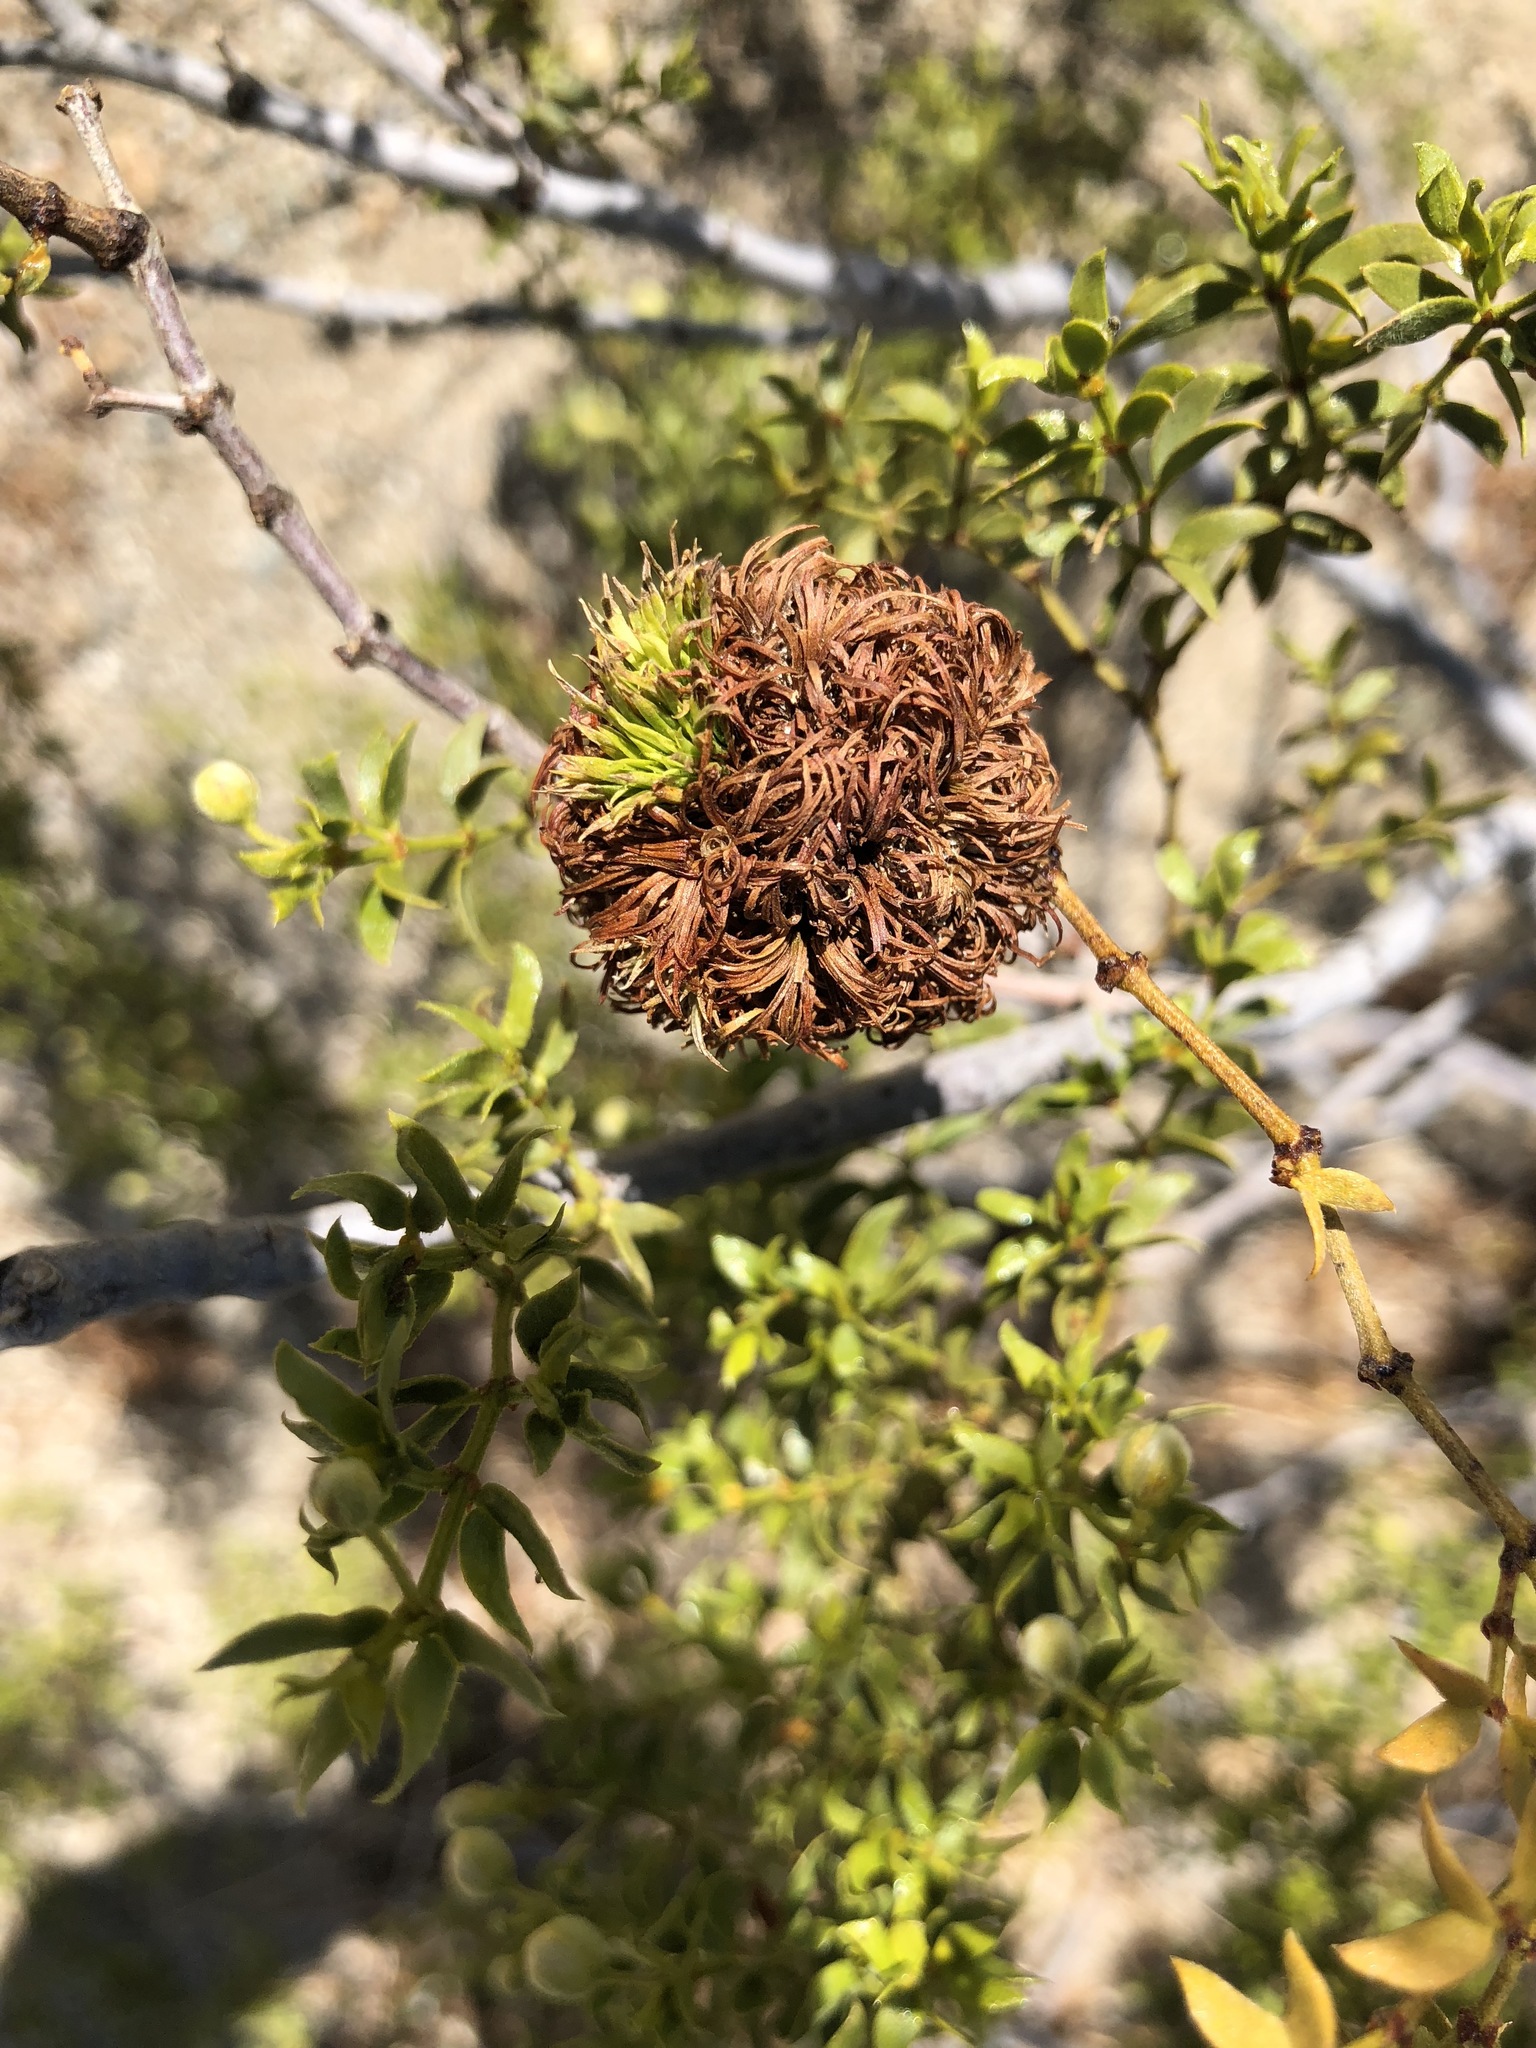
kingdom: Animalia
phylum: Arthropoda
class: Insecta
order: Diptera
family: Cecidomyiidae
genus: Asphondylia
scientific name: Asphondylia auripila
